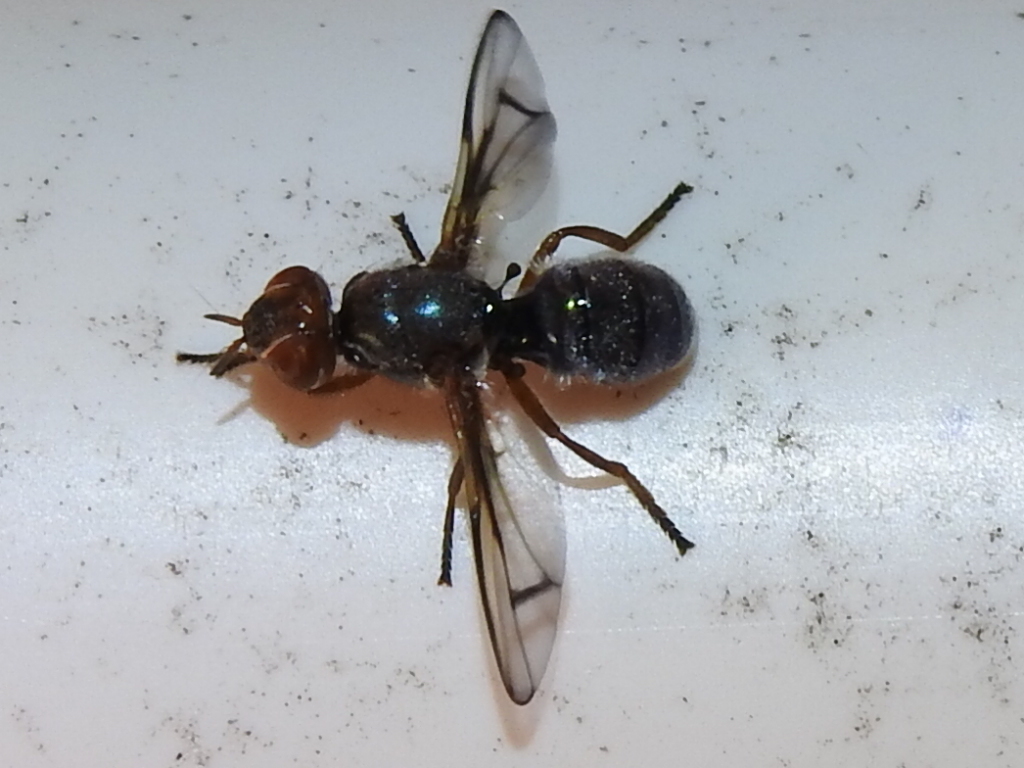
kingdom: Animalia
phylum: Arthropoda
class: Insecta
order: Diptera
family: Platystomatidae
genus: Senopterina
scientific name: Senopterina caerulescens
